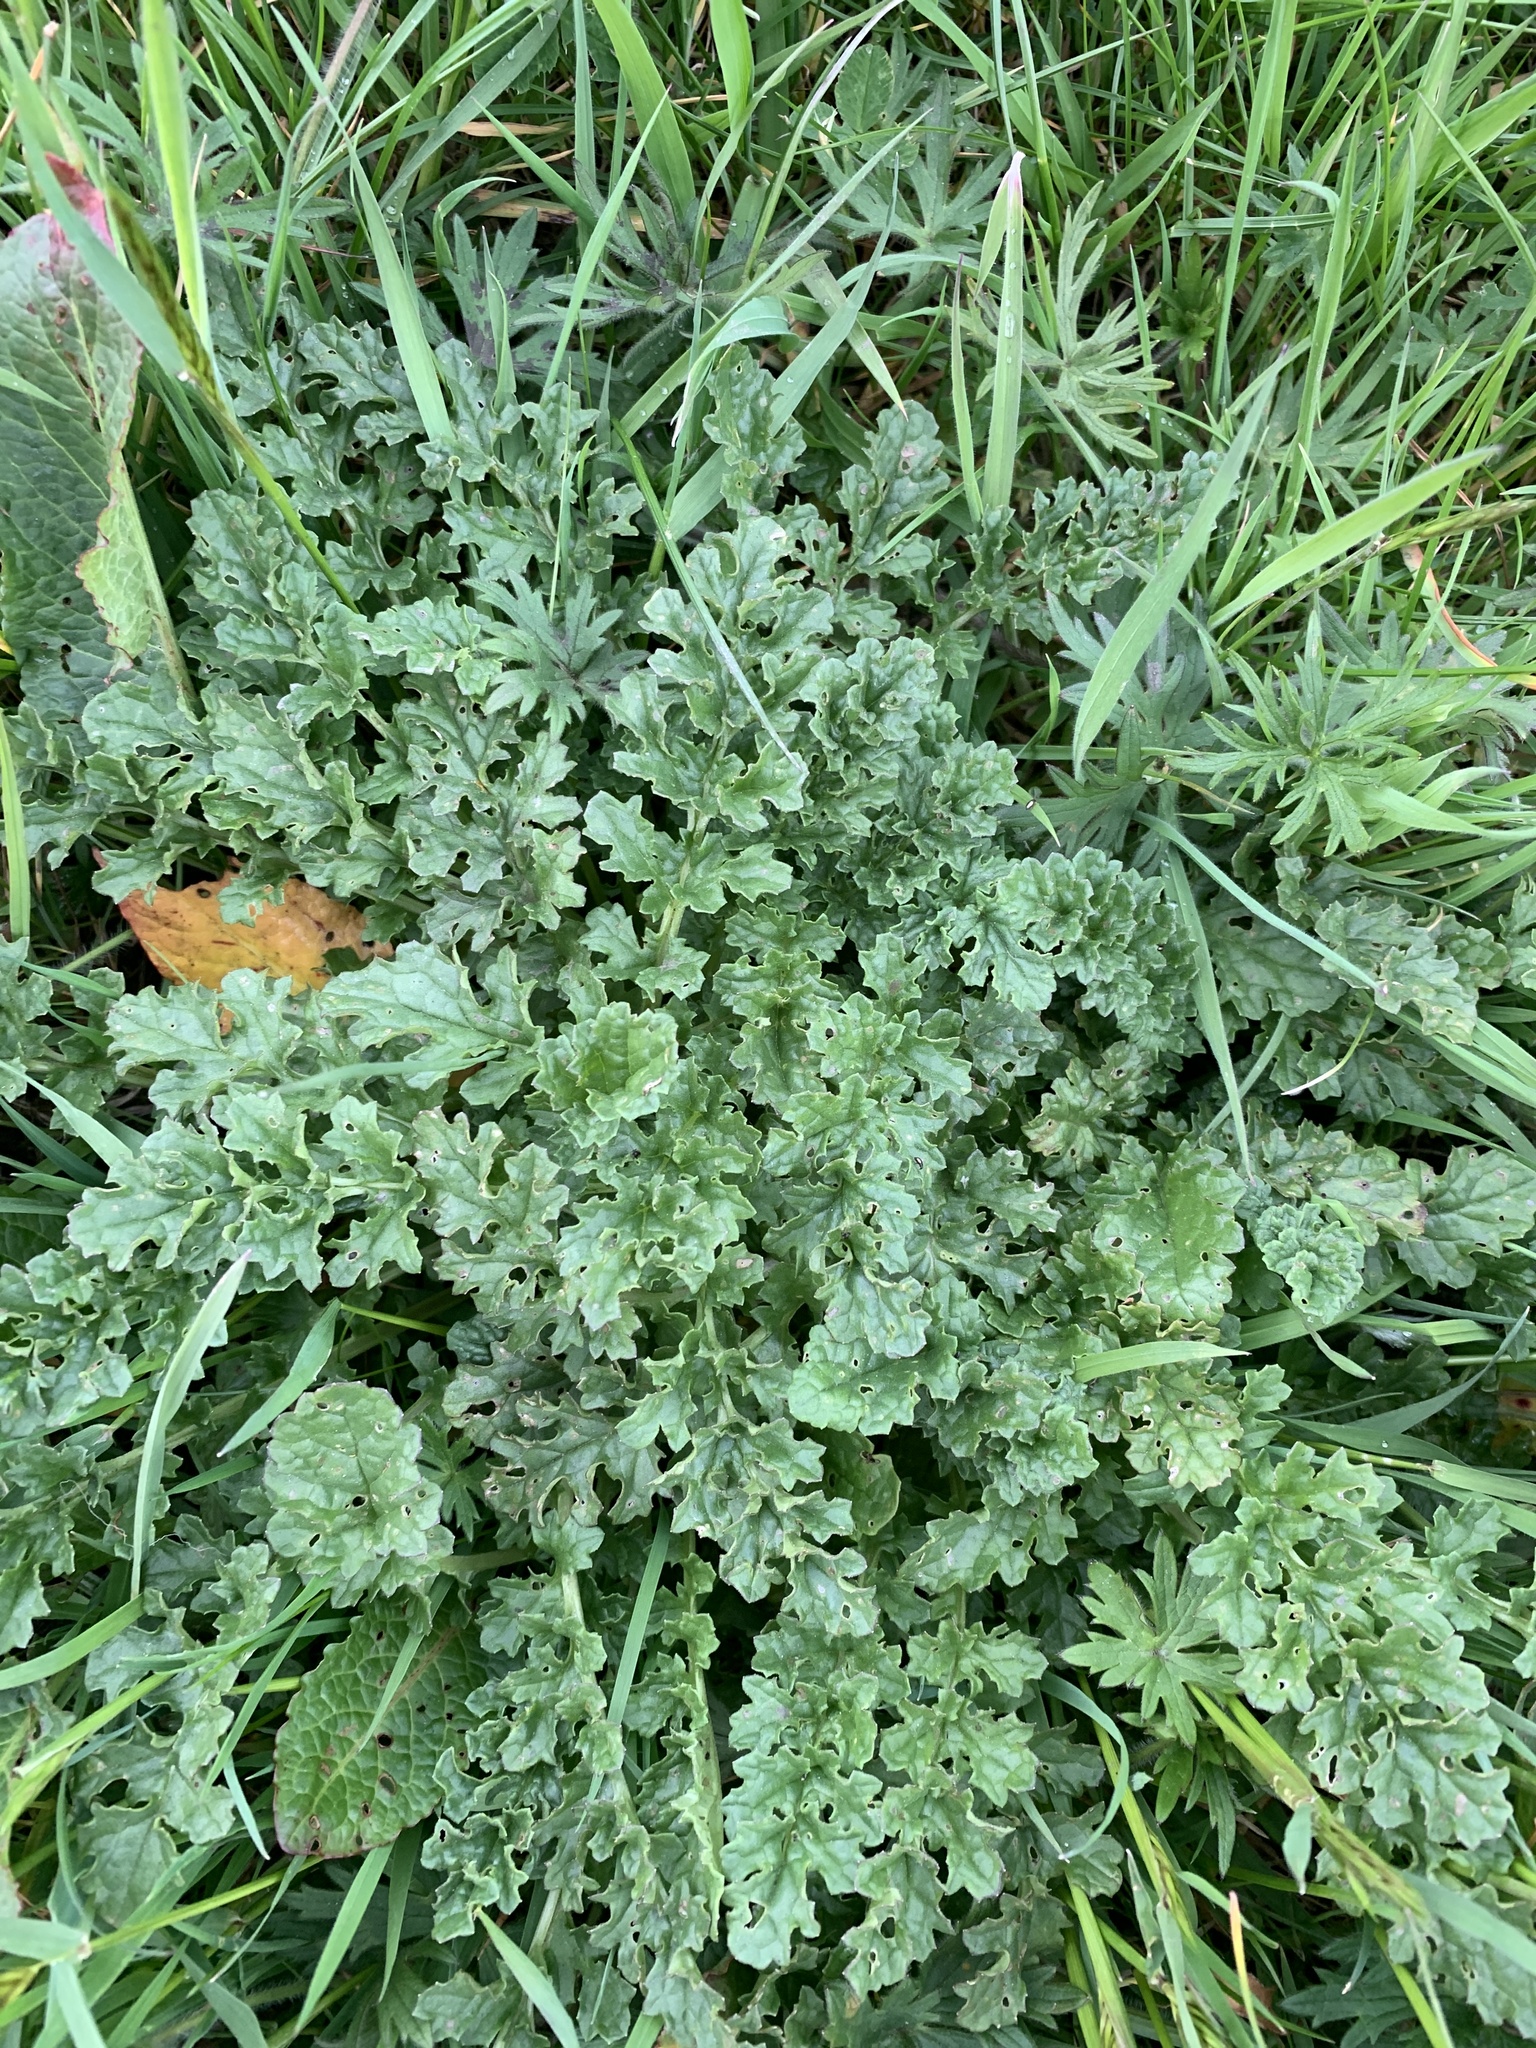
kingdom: Plantae
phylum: Tracheophyta
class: Magnoliopsida
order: Asterales
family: Asteraceae
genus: Jacobaea
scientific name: Jacobaea vulgaris
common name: Stinking willie
